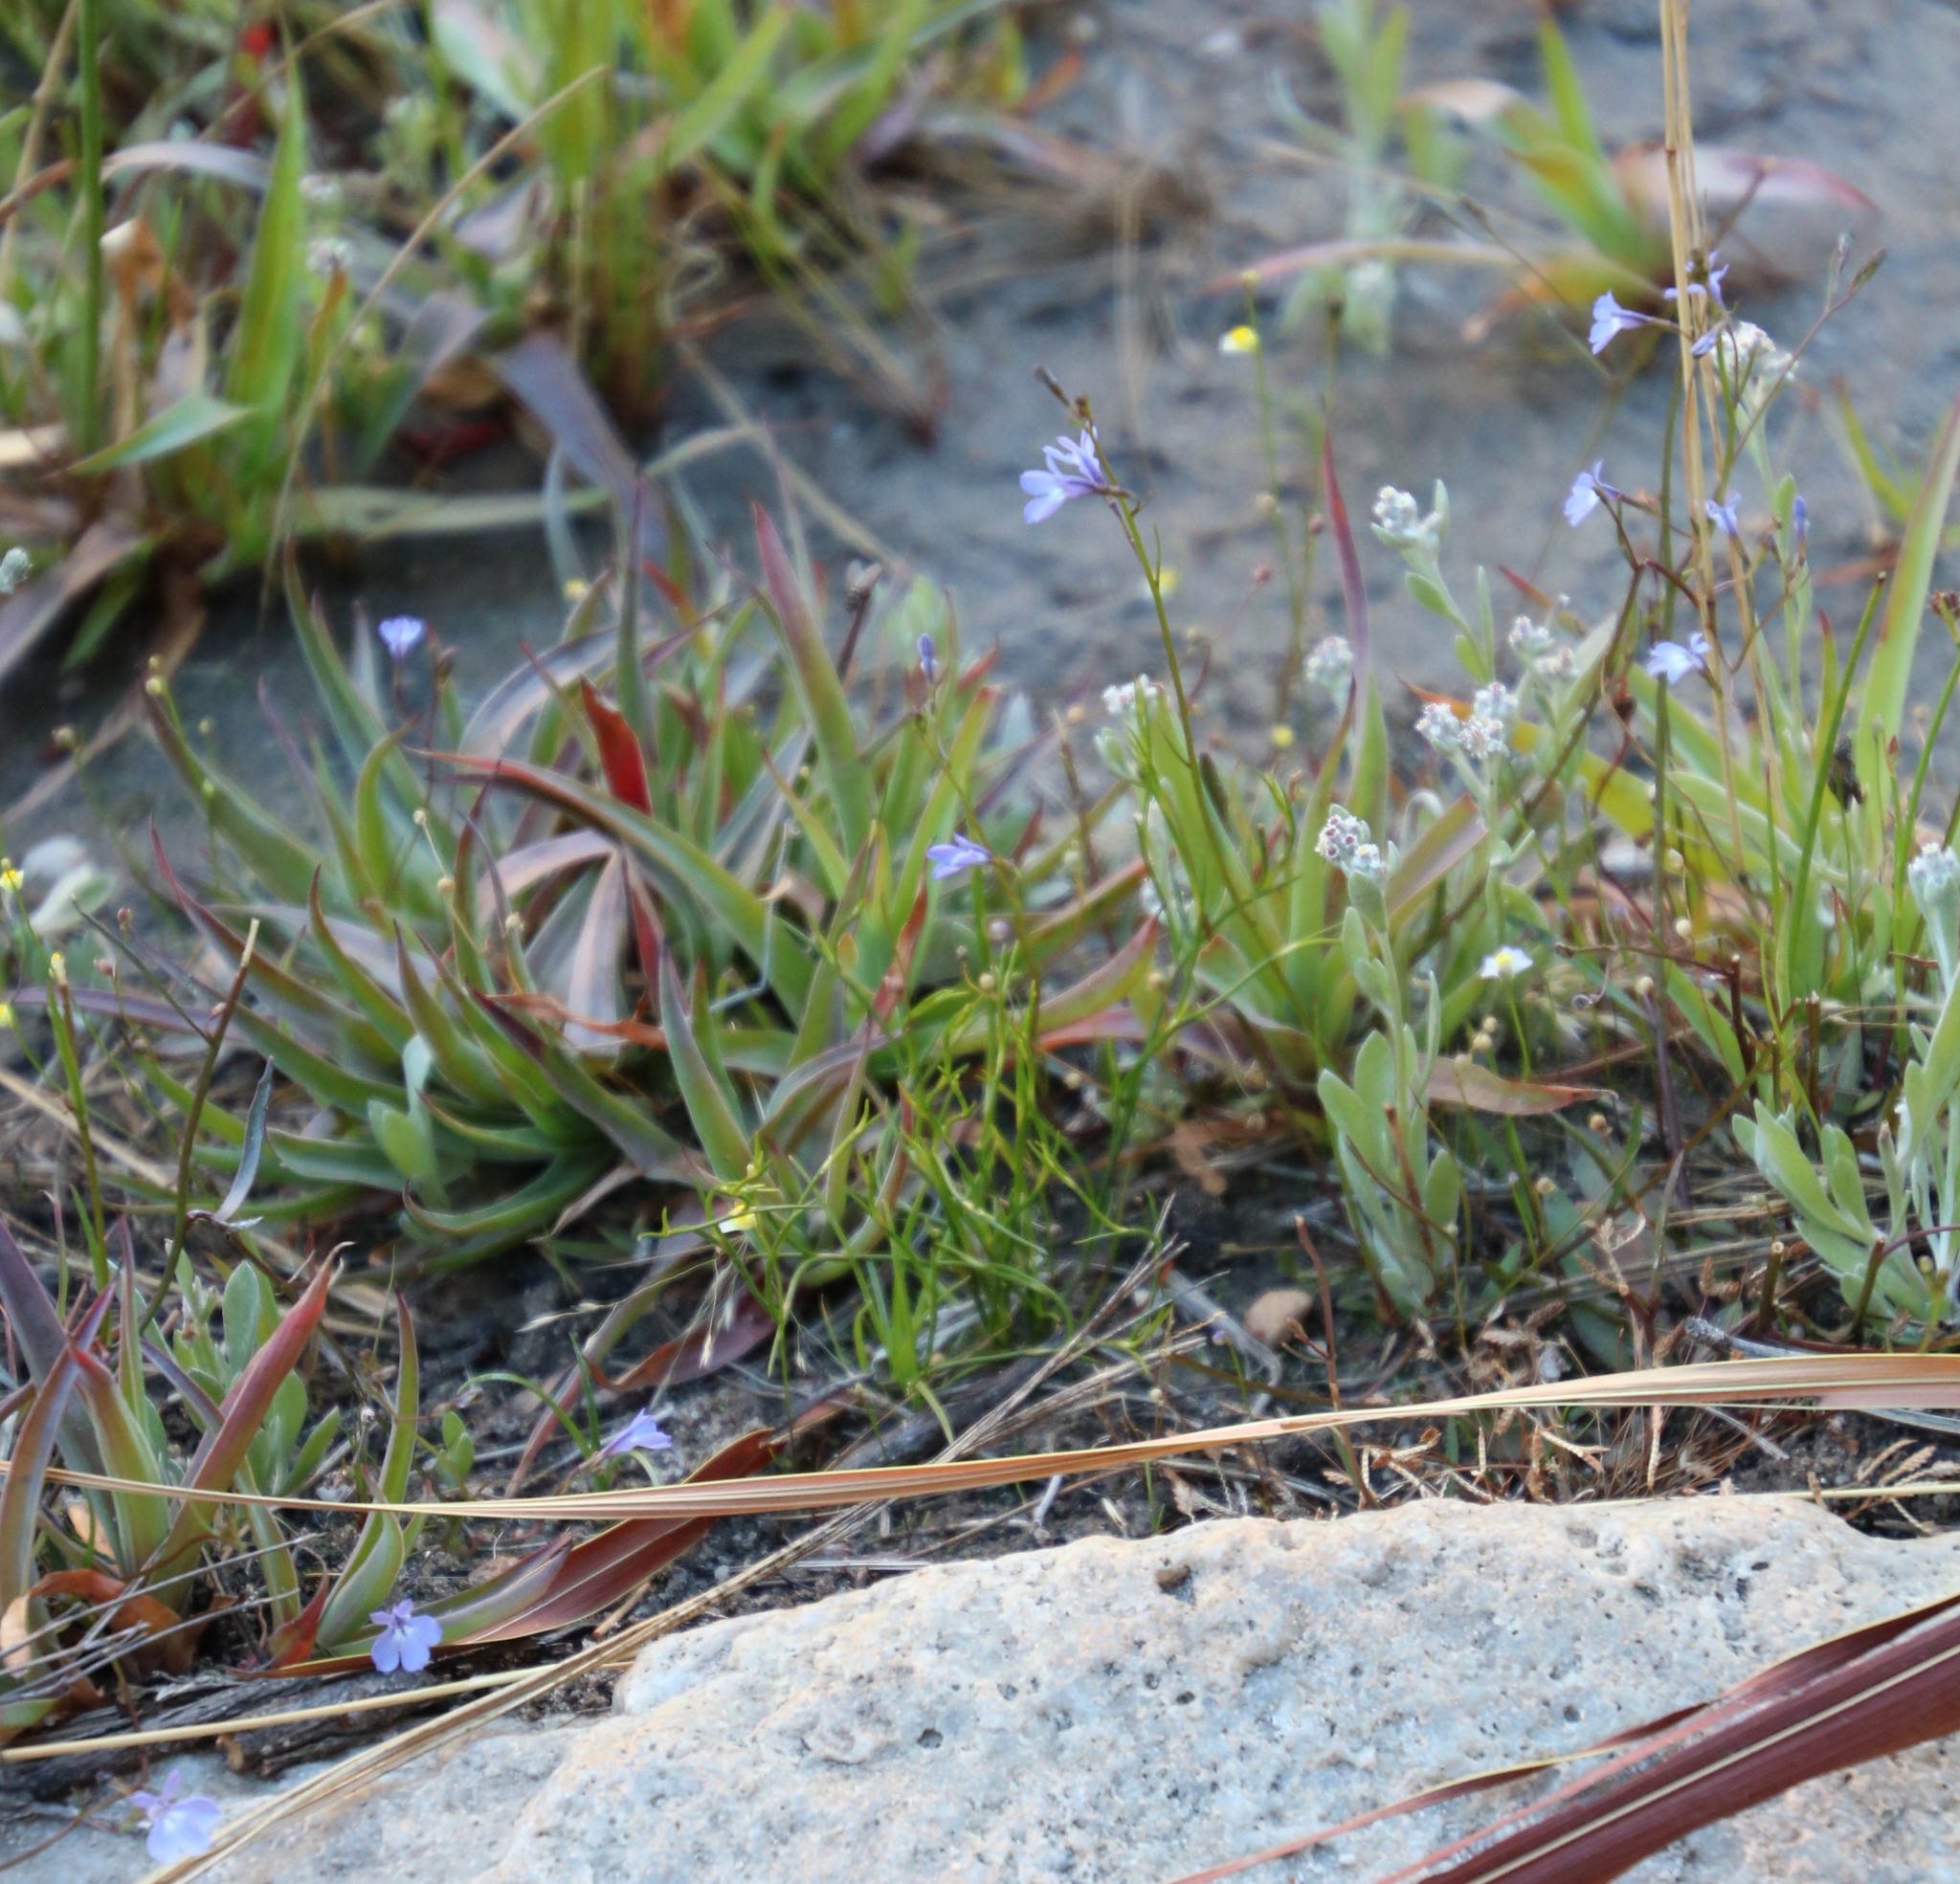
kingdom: Plantae
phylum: Tracheophyta
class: Magnoliopsida
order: Asterales
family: Campanulaceae
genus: Wimmerella
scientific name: Wimmerella arabidea
